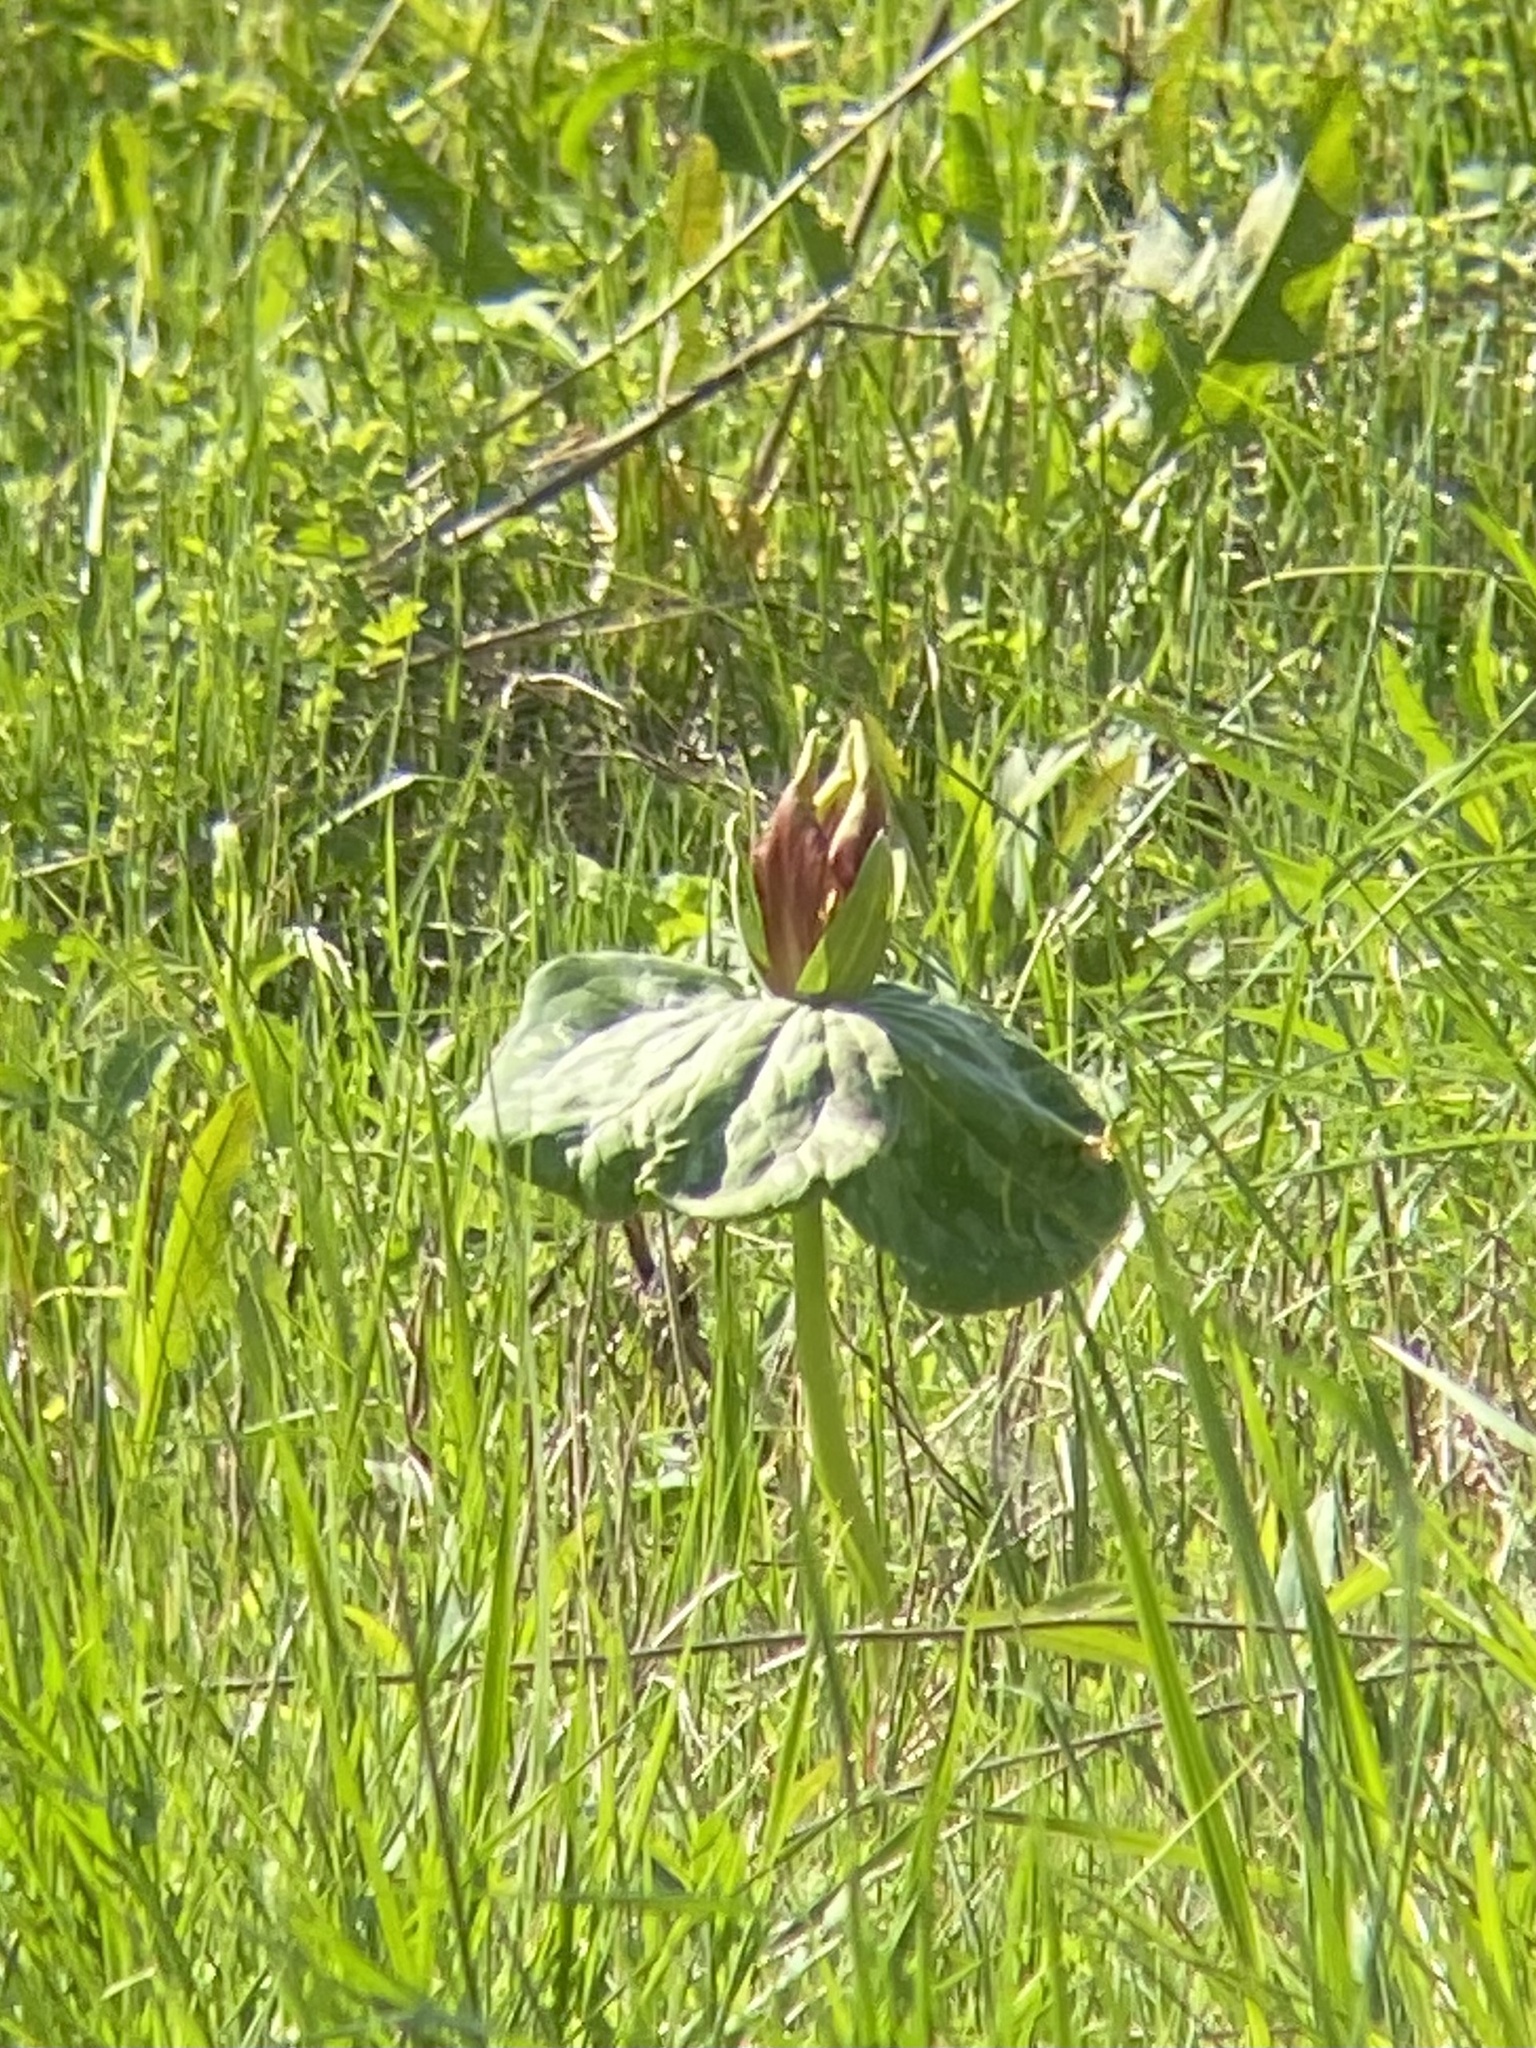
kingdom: Plantae
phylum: Tracheophyta
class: Liliopsida
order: Liliales
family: Melanthiaceae
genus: Trillium
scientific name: Trillium sessile
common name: Sessile trillium
